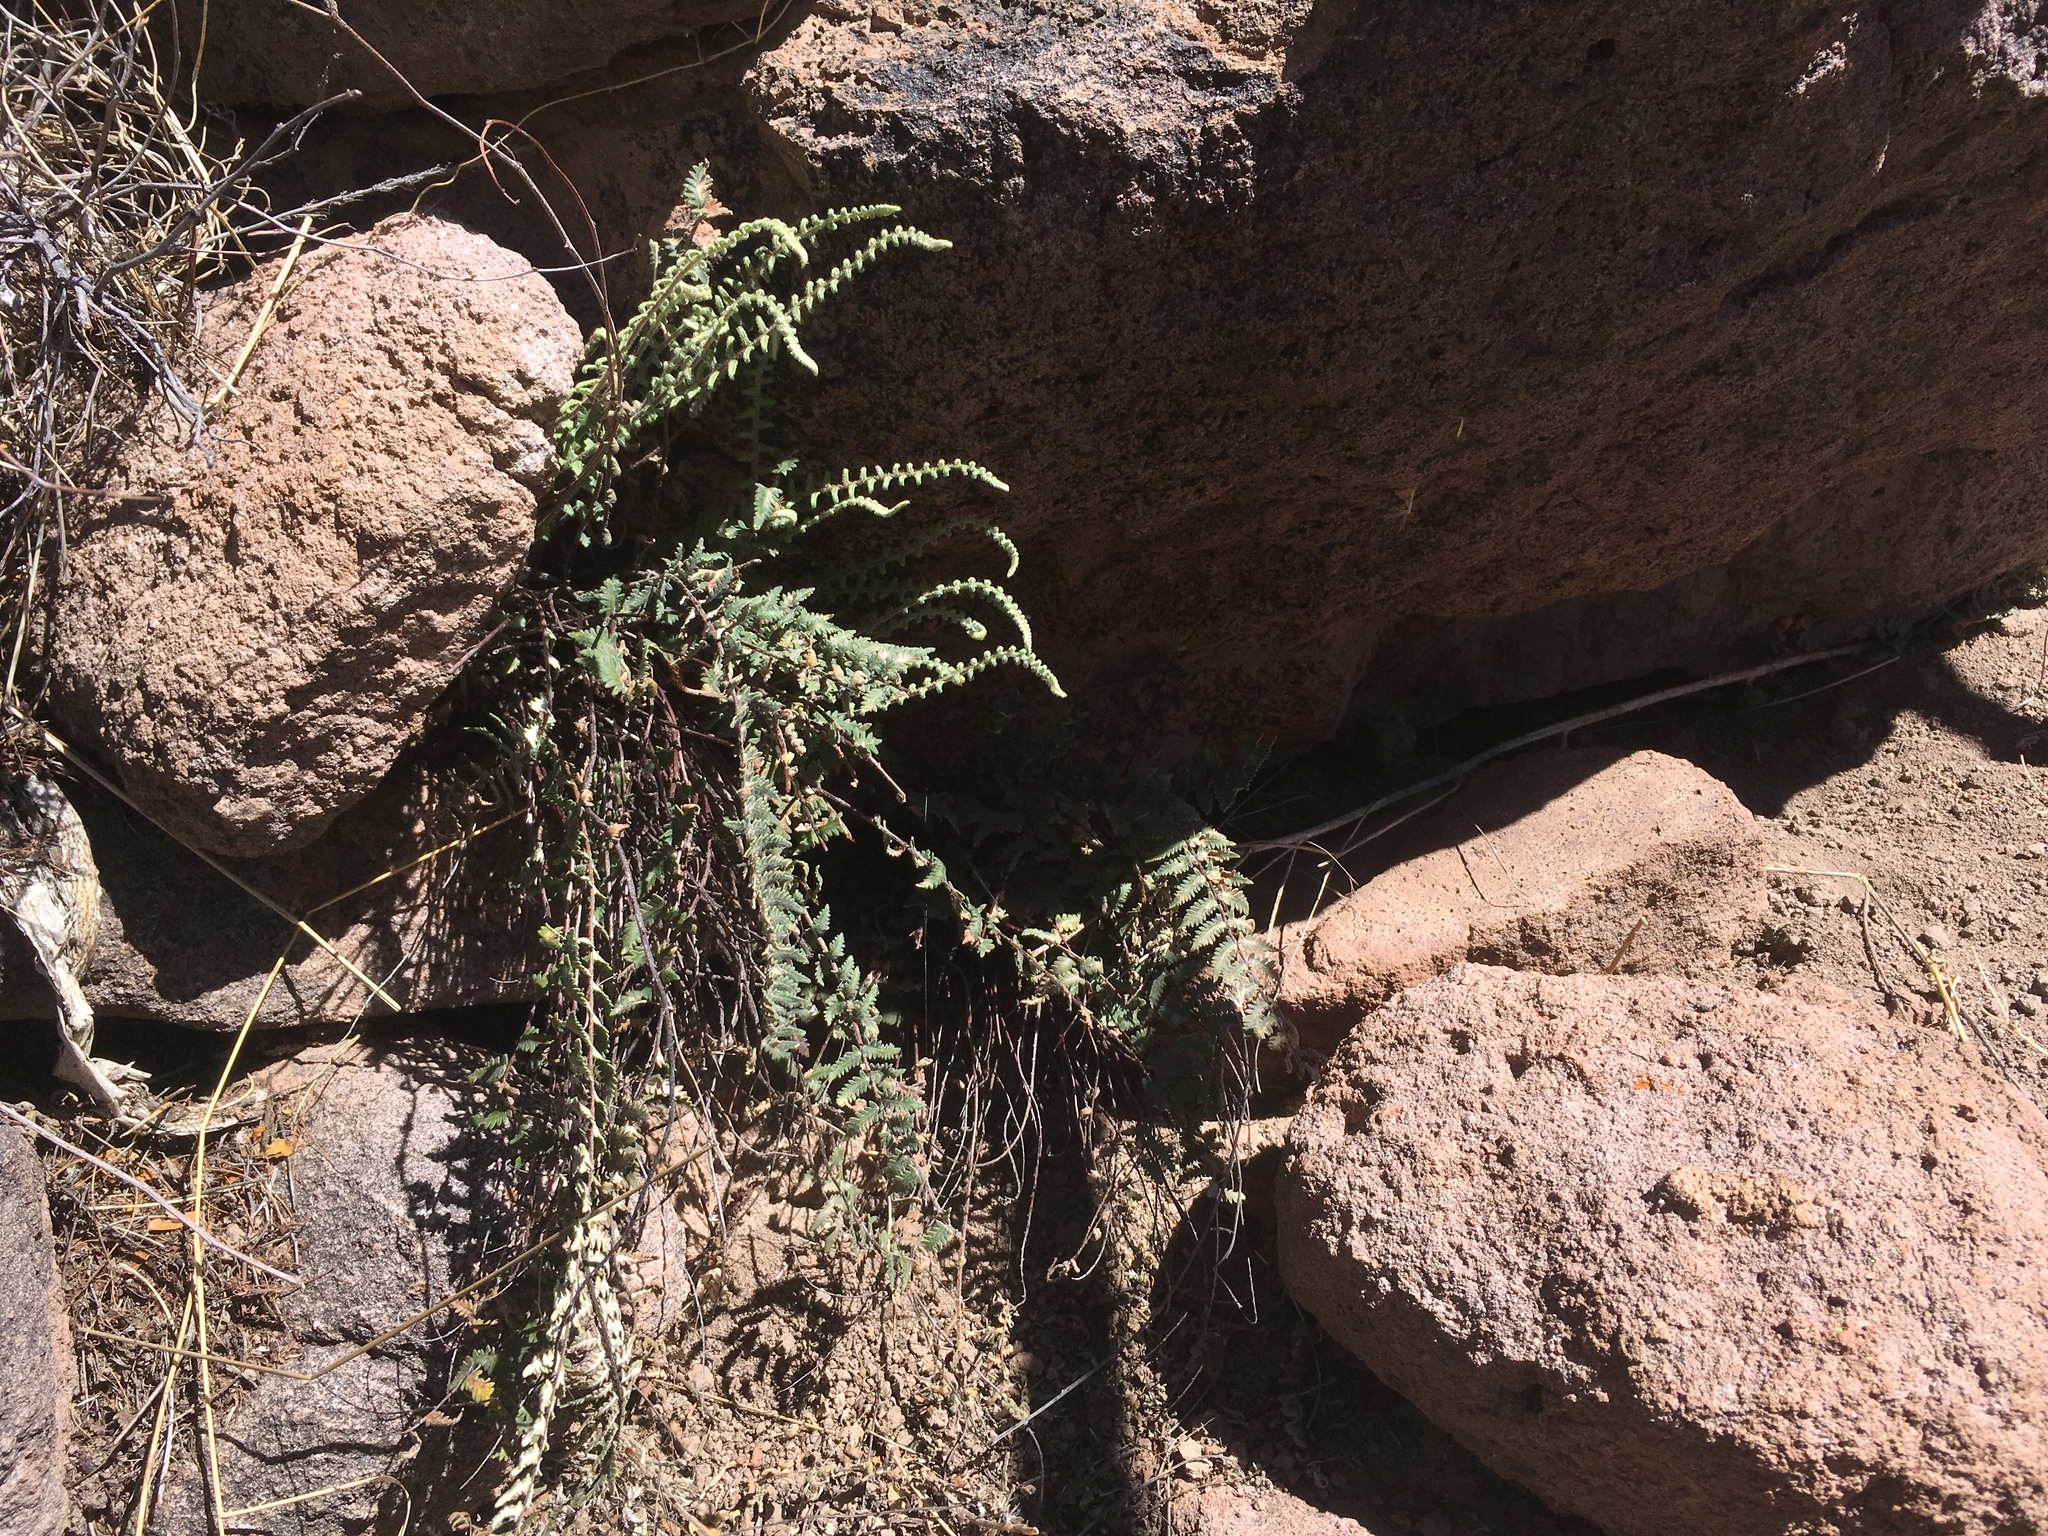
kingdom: Plantae
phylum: Tracheophyta
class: Polypodiopsida
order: Polypodiales
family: Pteridaceae
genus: Myriopteris
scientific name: Myriopteris aurea
